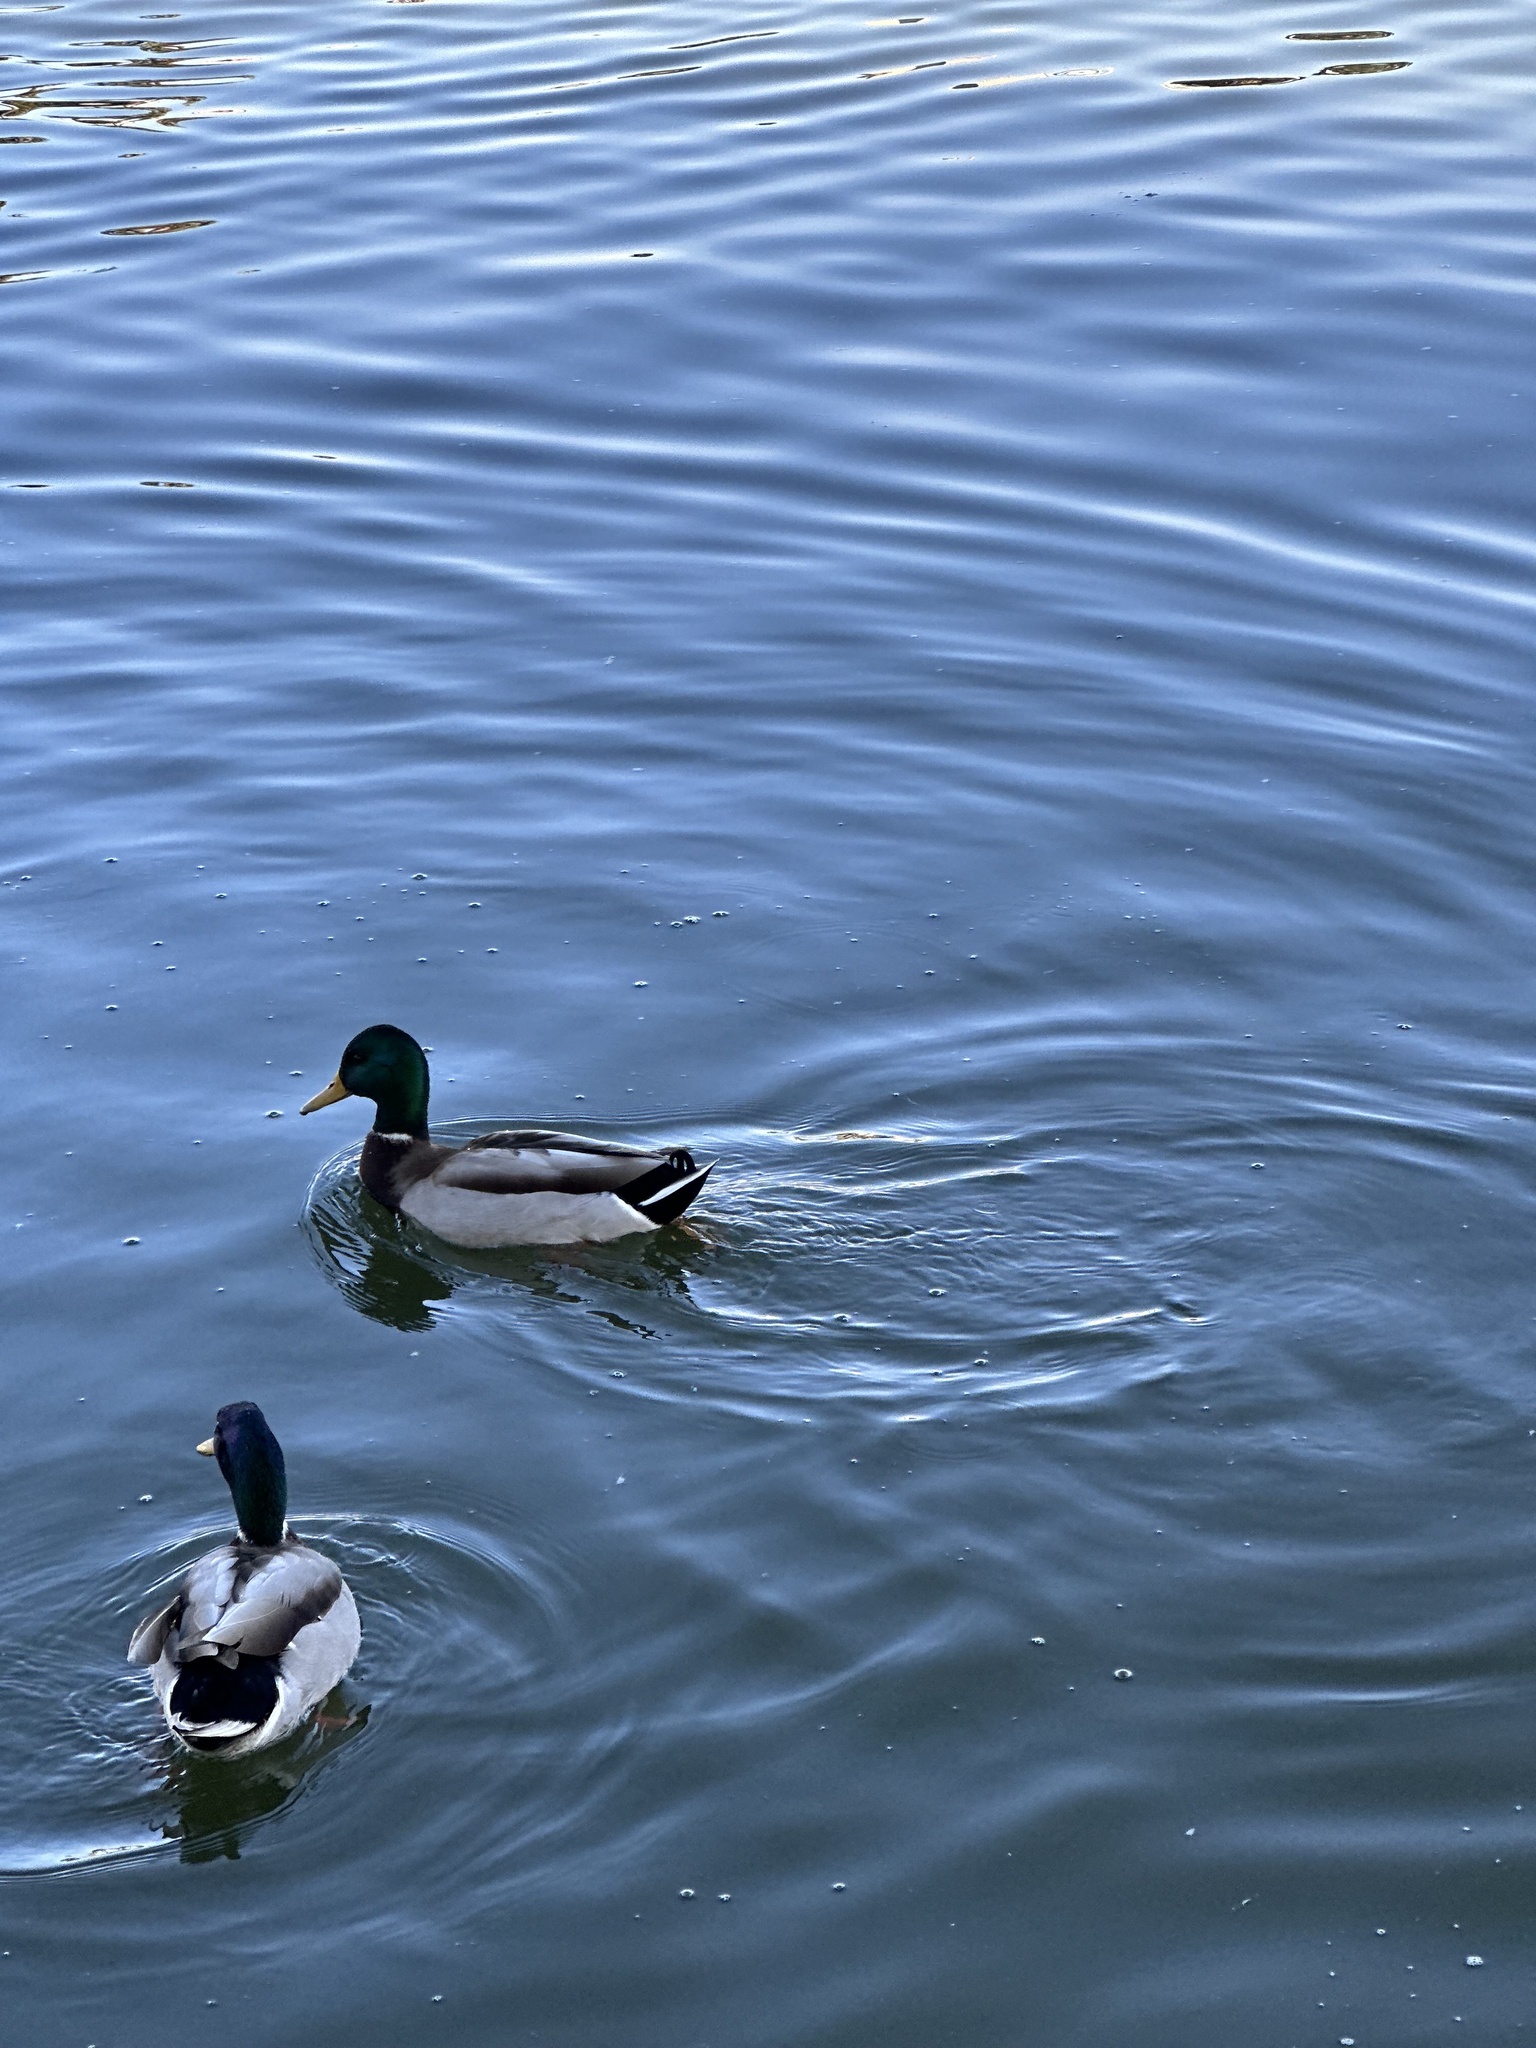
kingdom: Animalia
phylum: Chordata
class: Aves
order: Anseriformes
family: Anatidae
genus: Anas
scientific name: Anas platyrhynchos
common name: Mallard
